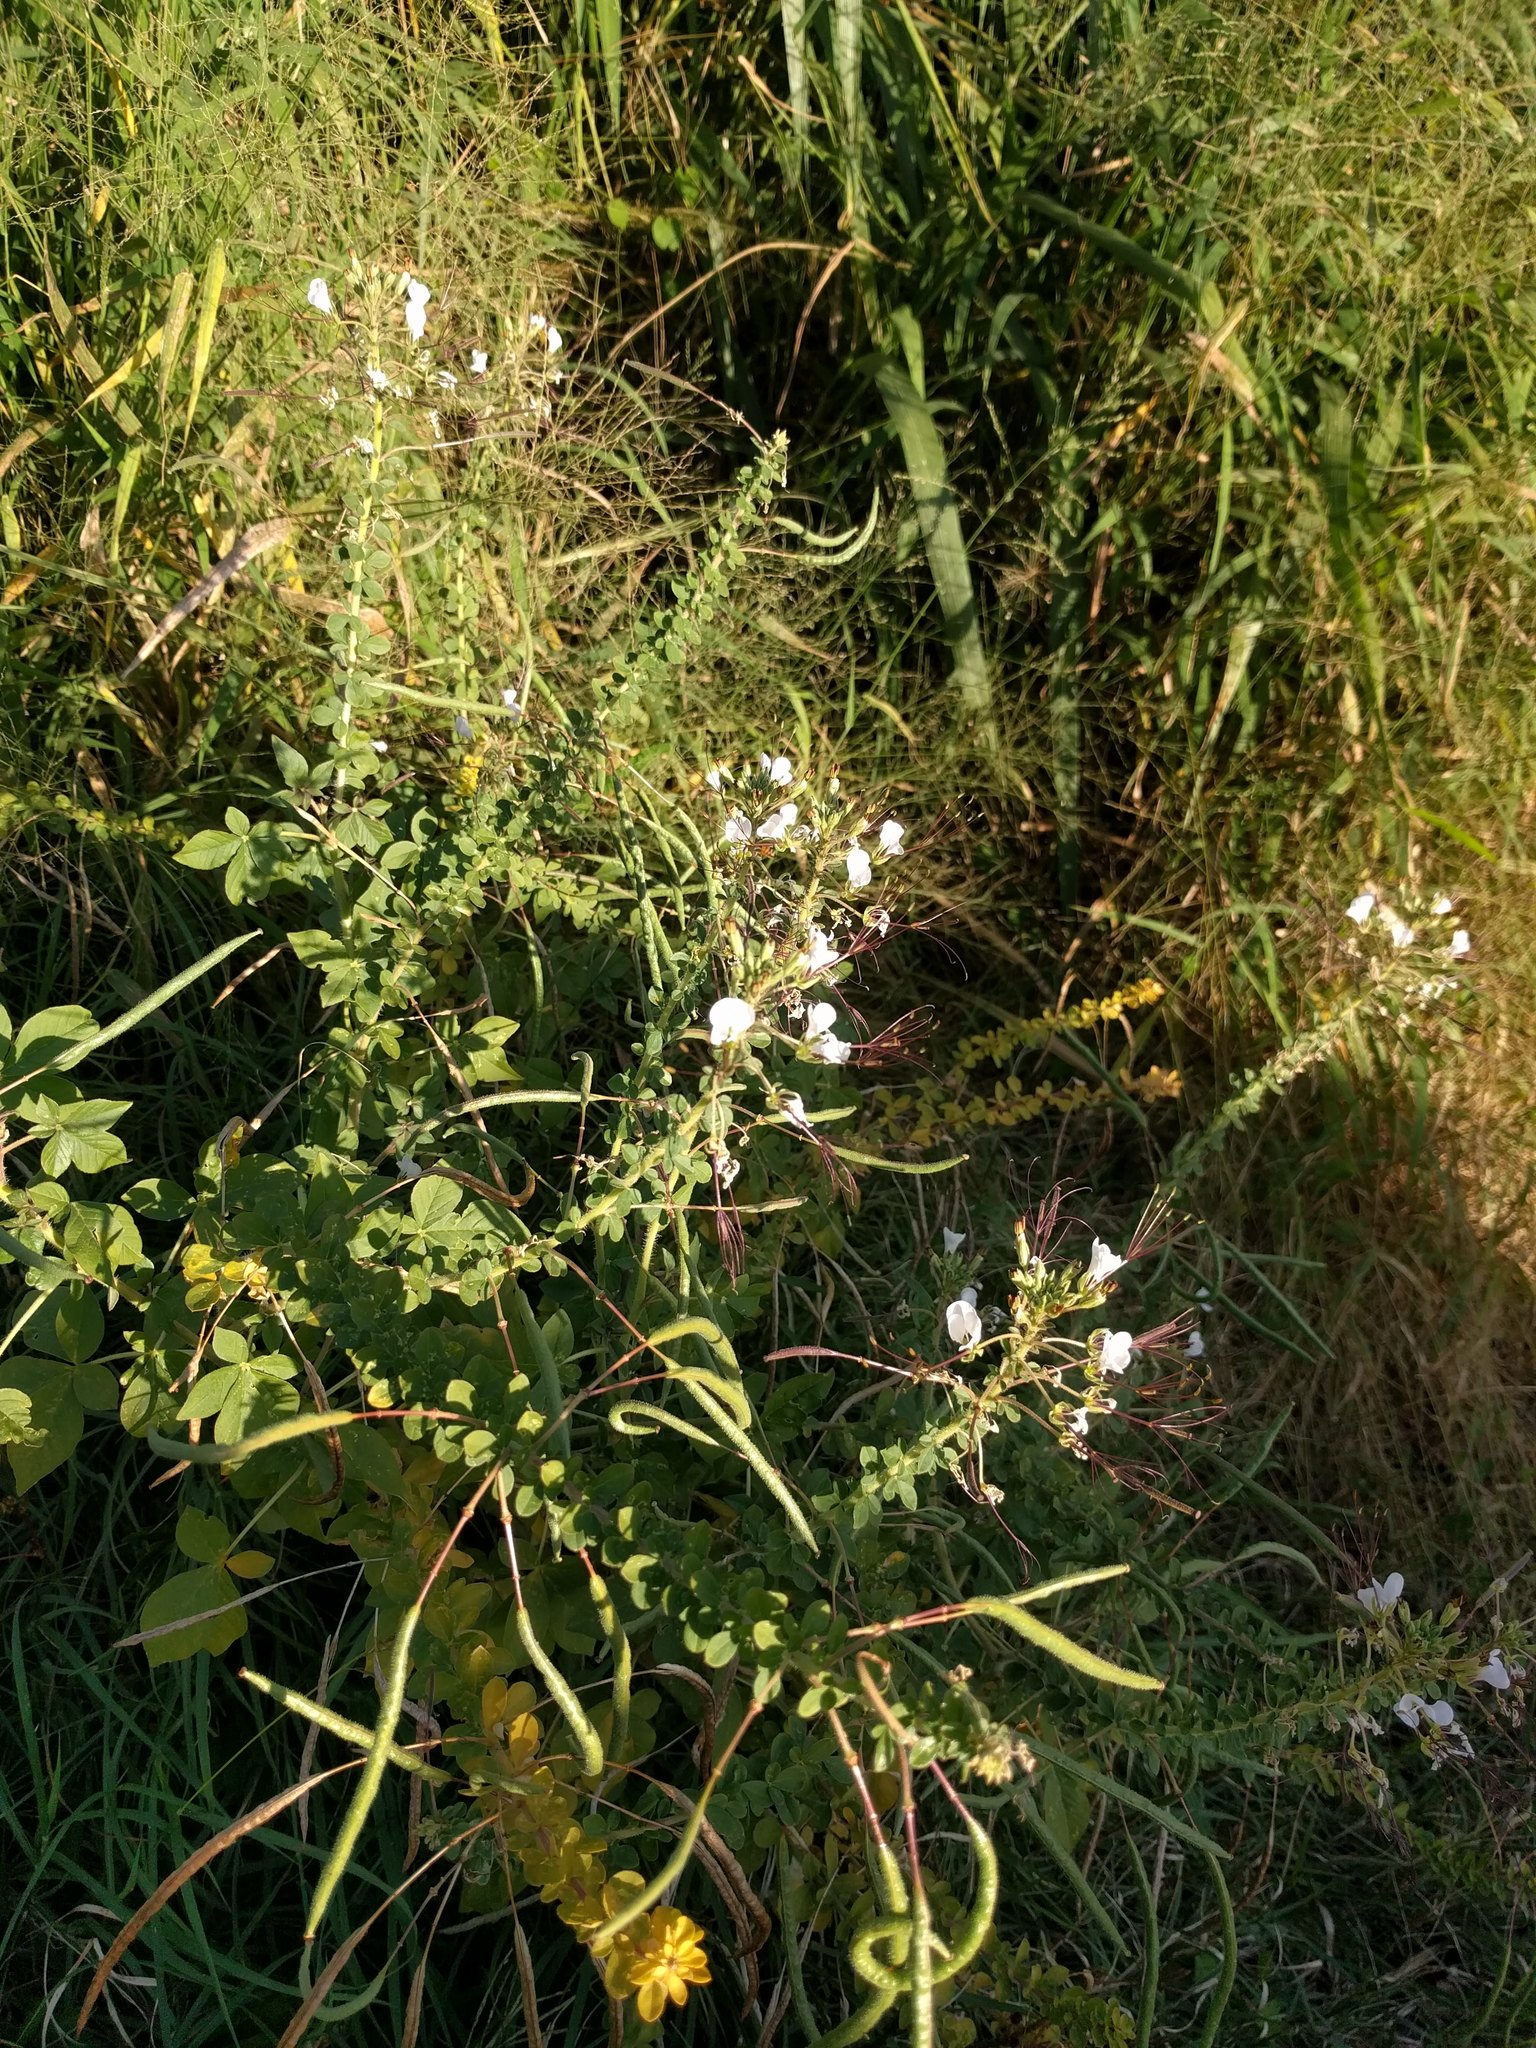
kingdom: Plantae
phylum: Tracheophyta
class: Magnoliopsida
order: Brassicales
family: Cleomaceae
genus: Gynandropsis
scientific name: Gynandropsis gynandra
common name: Spiderwisp
